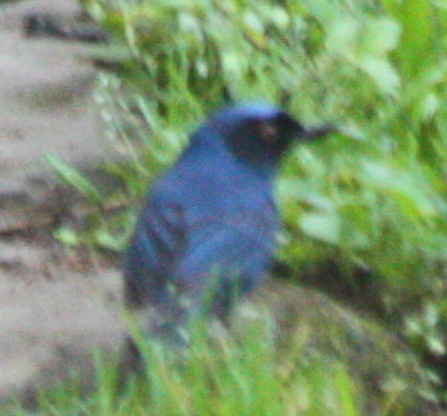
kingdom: Animalia
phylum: Chordata
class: Aves
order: Passeriformes
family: Thraupidae
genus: Diglossa
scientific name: Diglossa cyanea
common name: Masked flowerpiercer
